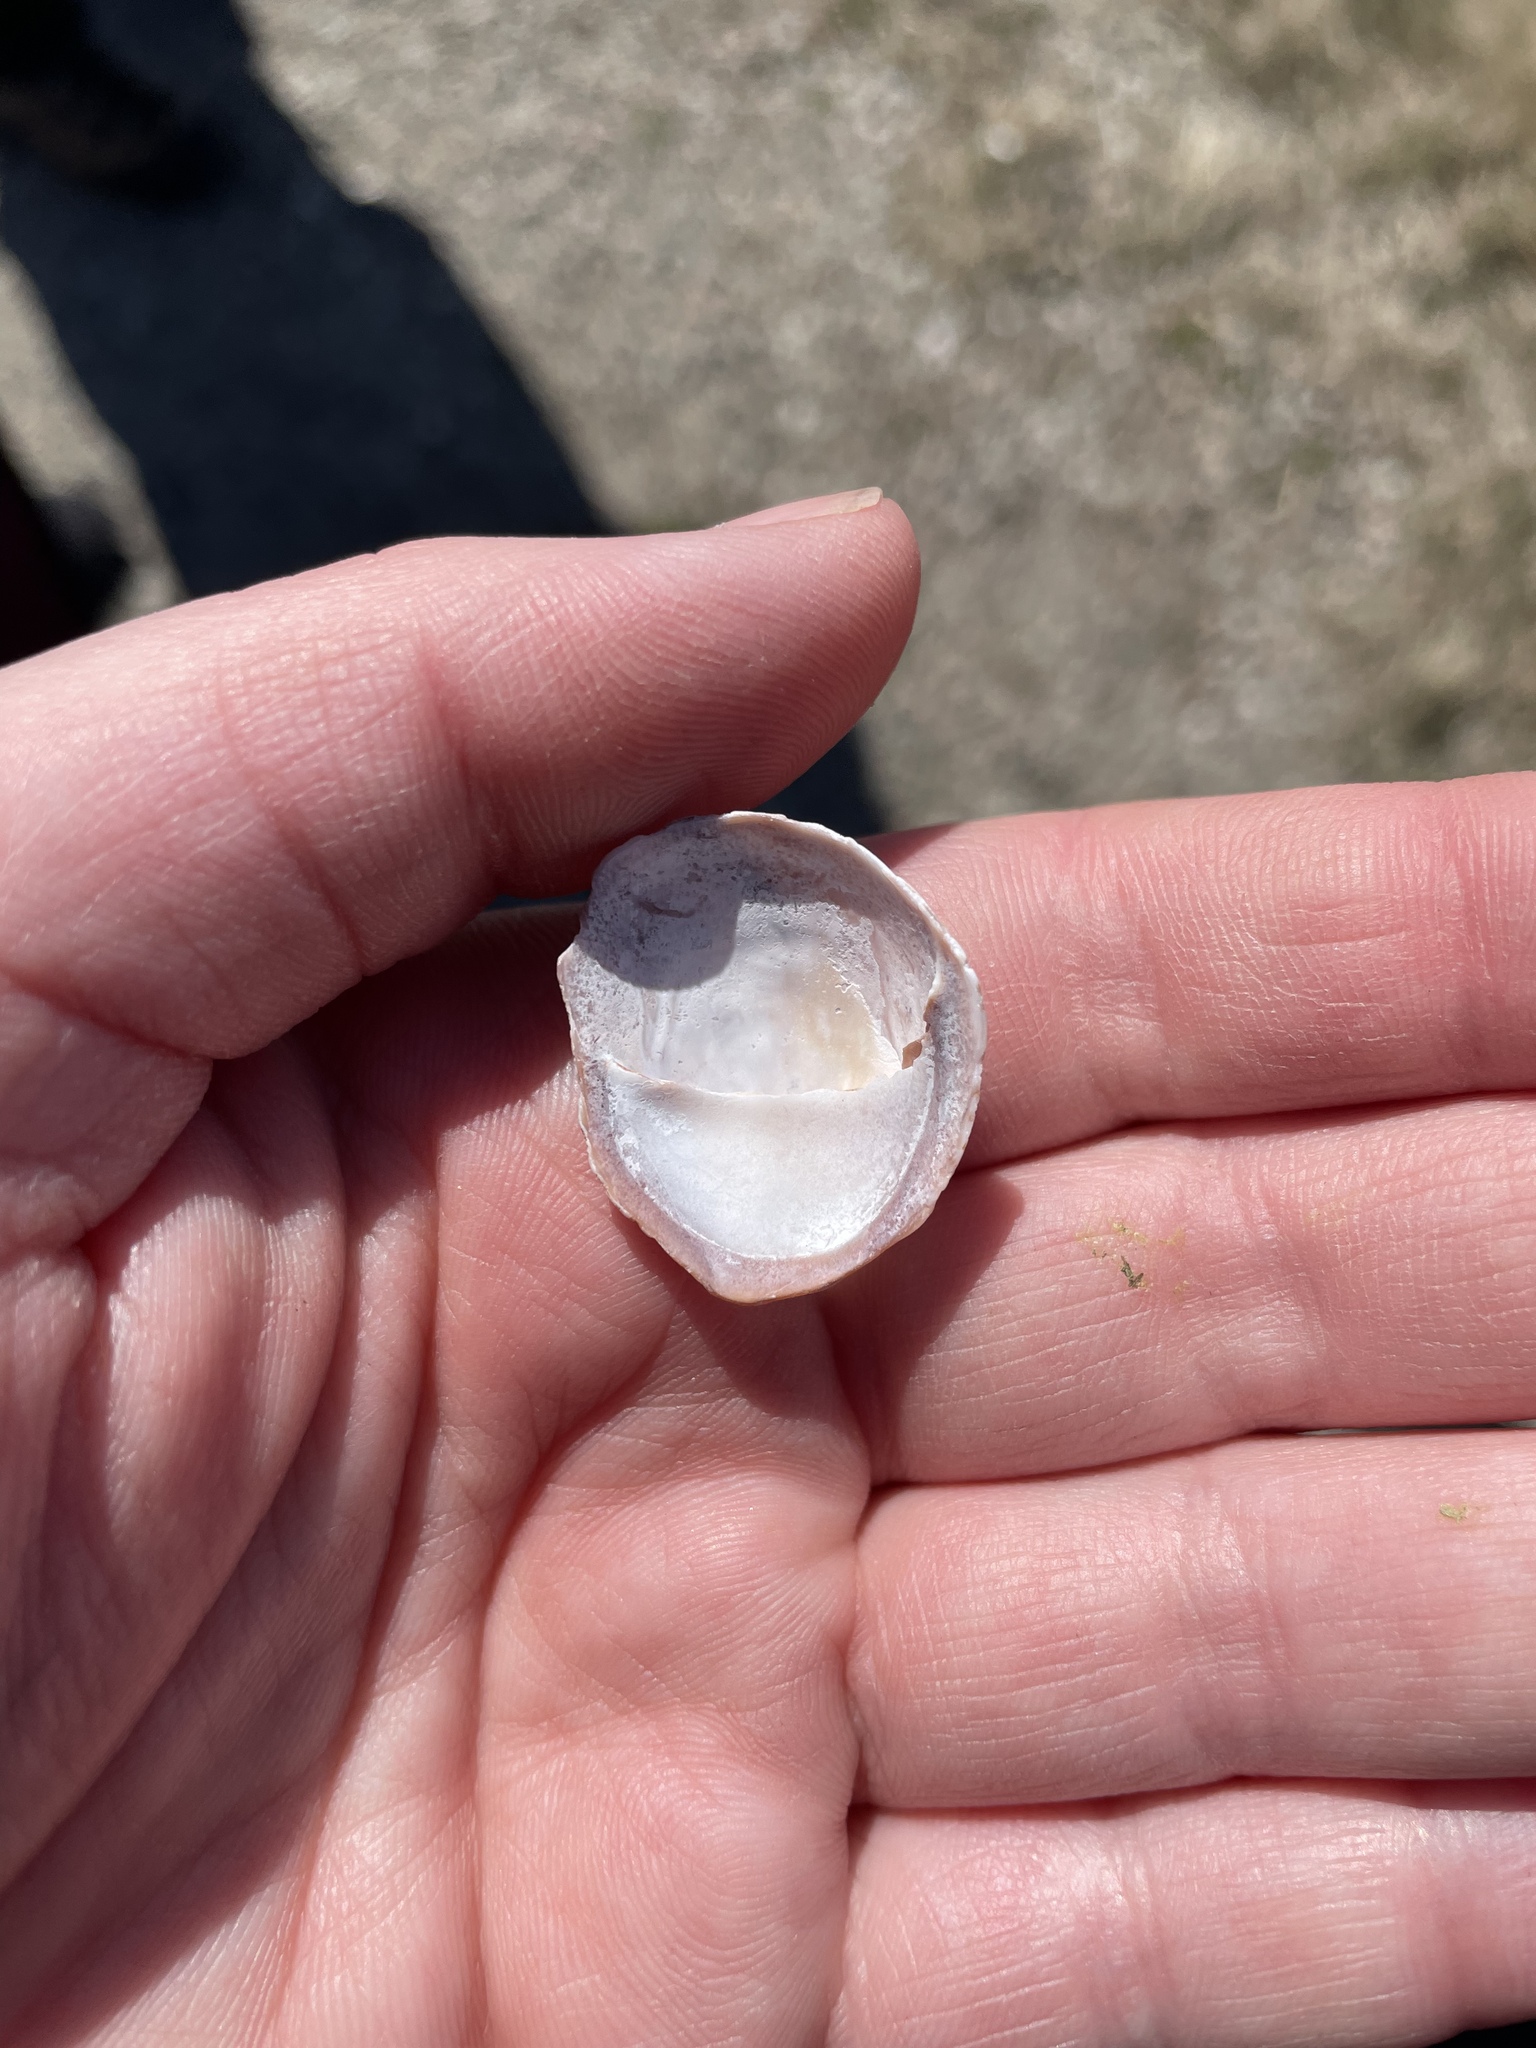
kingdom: Animalia
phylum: Mollusca
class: Gastropoda
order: Littorinimorpha
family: Calyptraeidae
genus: Crepidula
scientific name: Crepidula fornicata
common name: Slipper limpet
